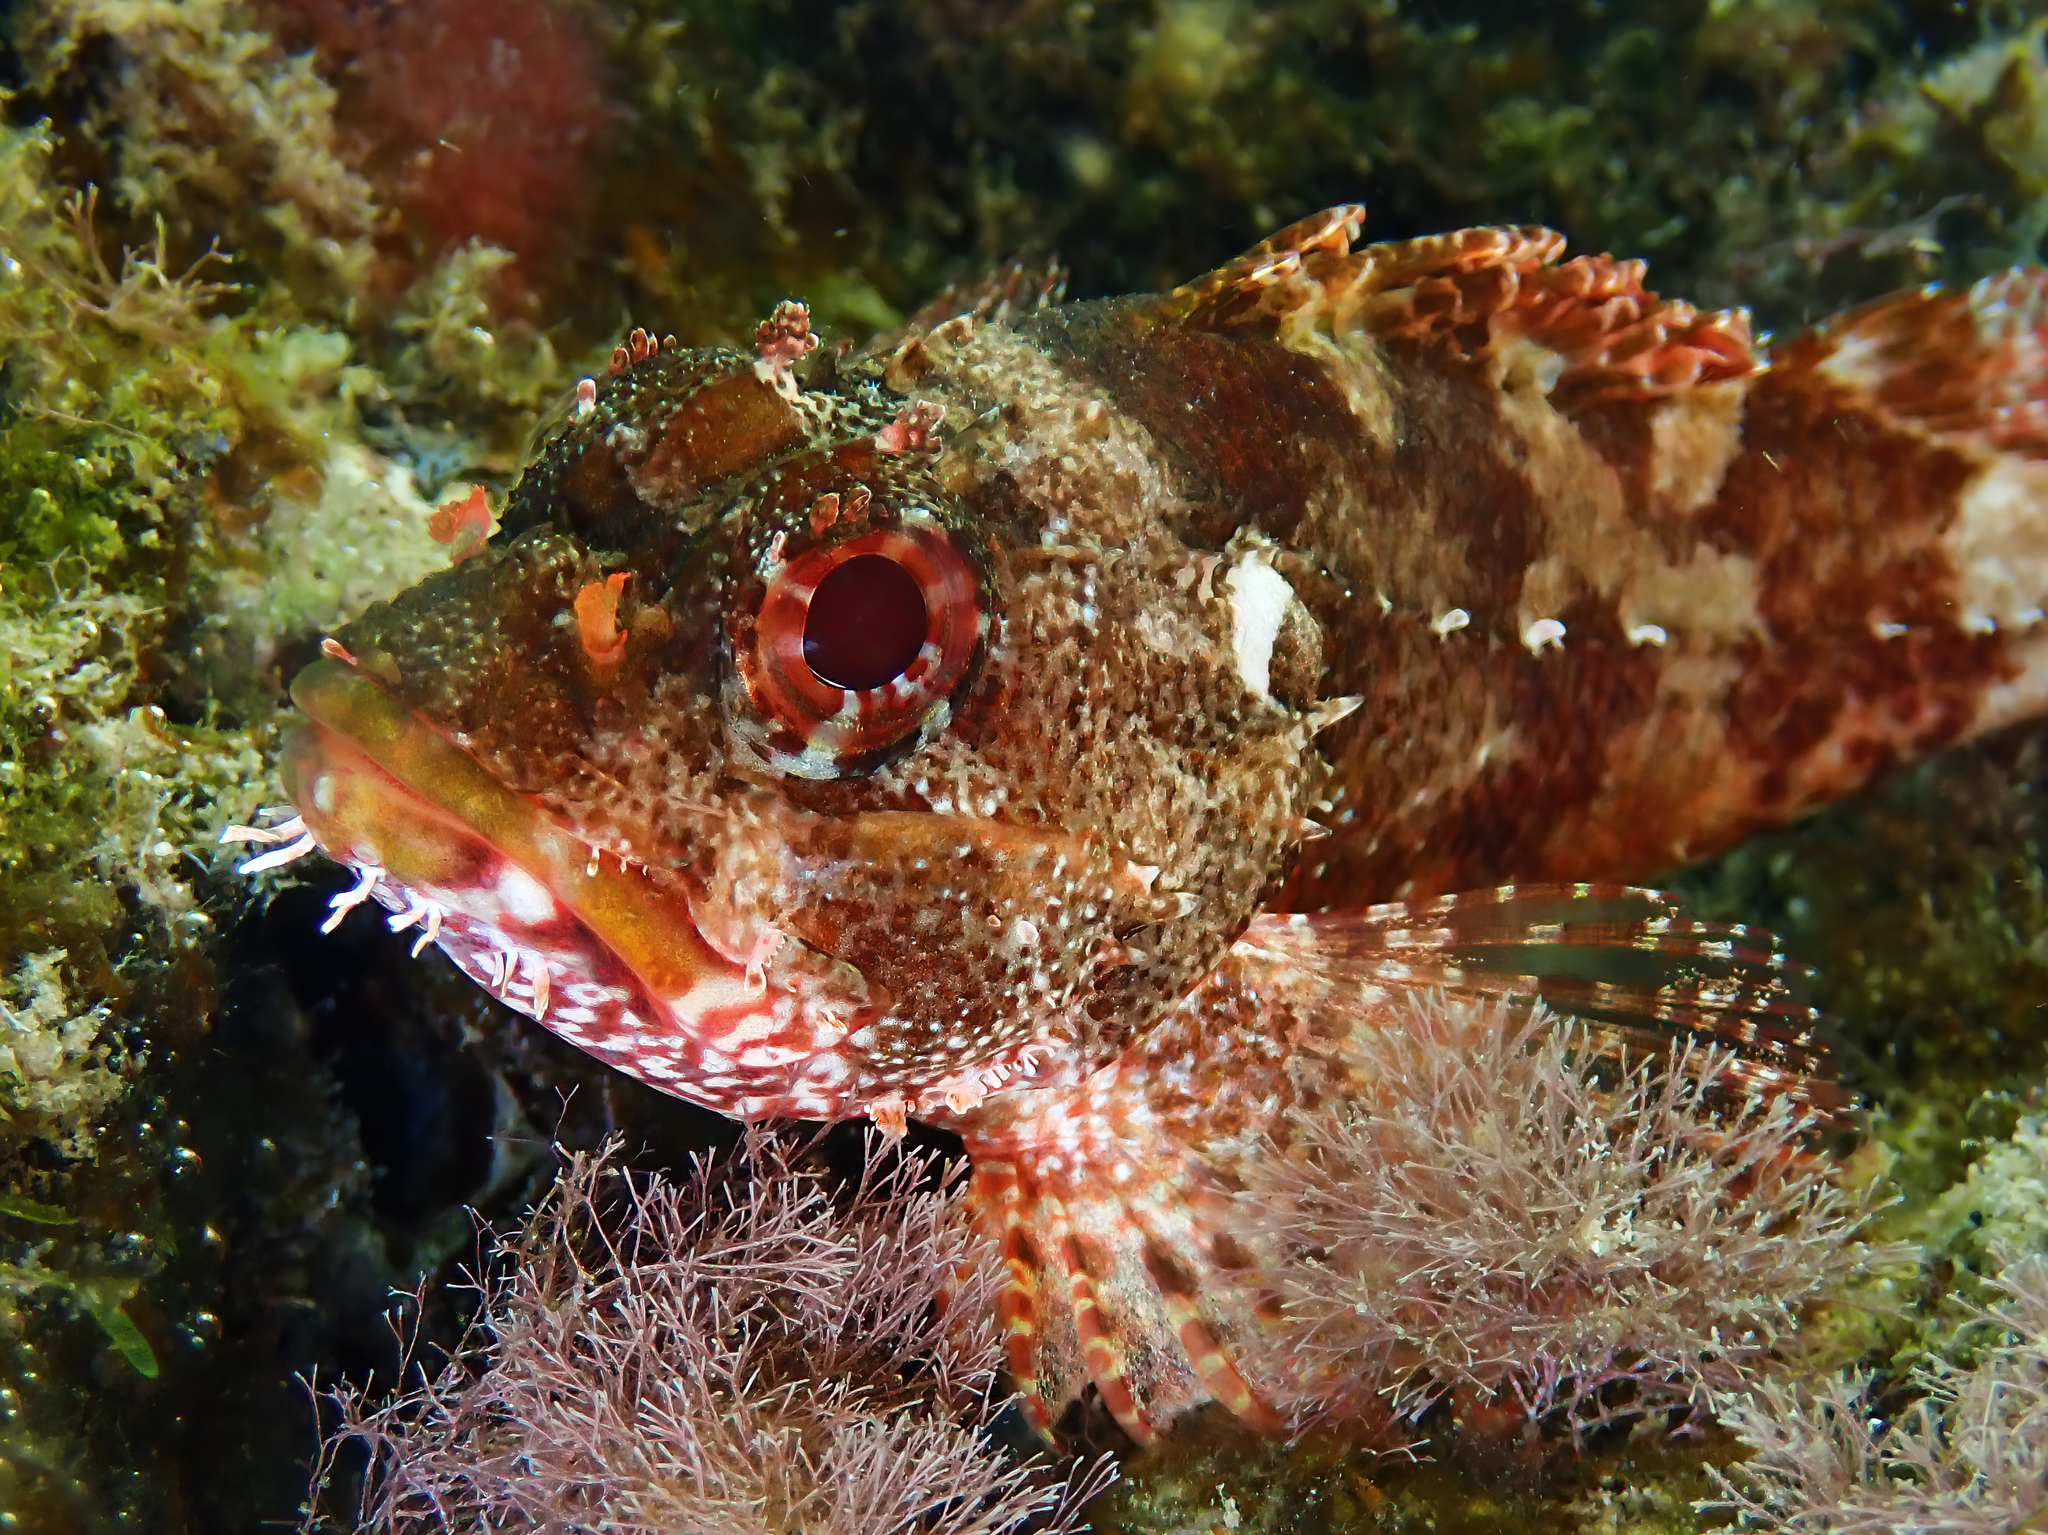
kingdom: Animalia
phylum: Chordata
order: Scorpaeniformes
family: Scorpaenidae
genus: Scorpaena
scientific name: Scorpaena maderensis
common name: Madeira rockfish
